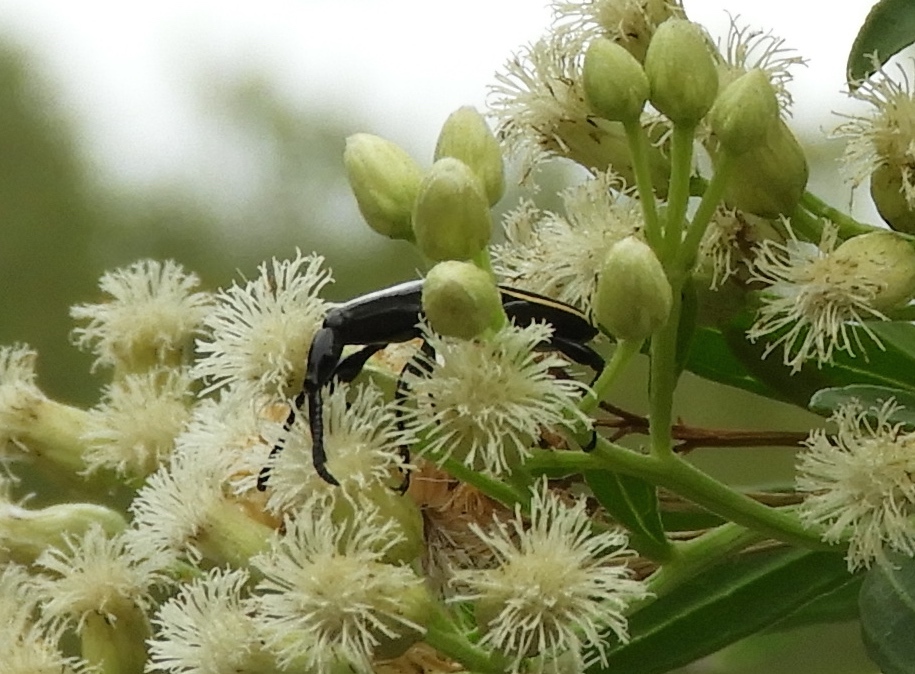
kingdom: Animalia
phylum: Arthropoda
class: Insecta
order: Coleoptera
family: Brentidae
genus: Brentus
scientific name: Brentus
